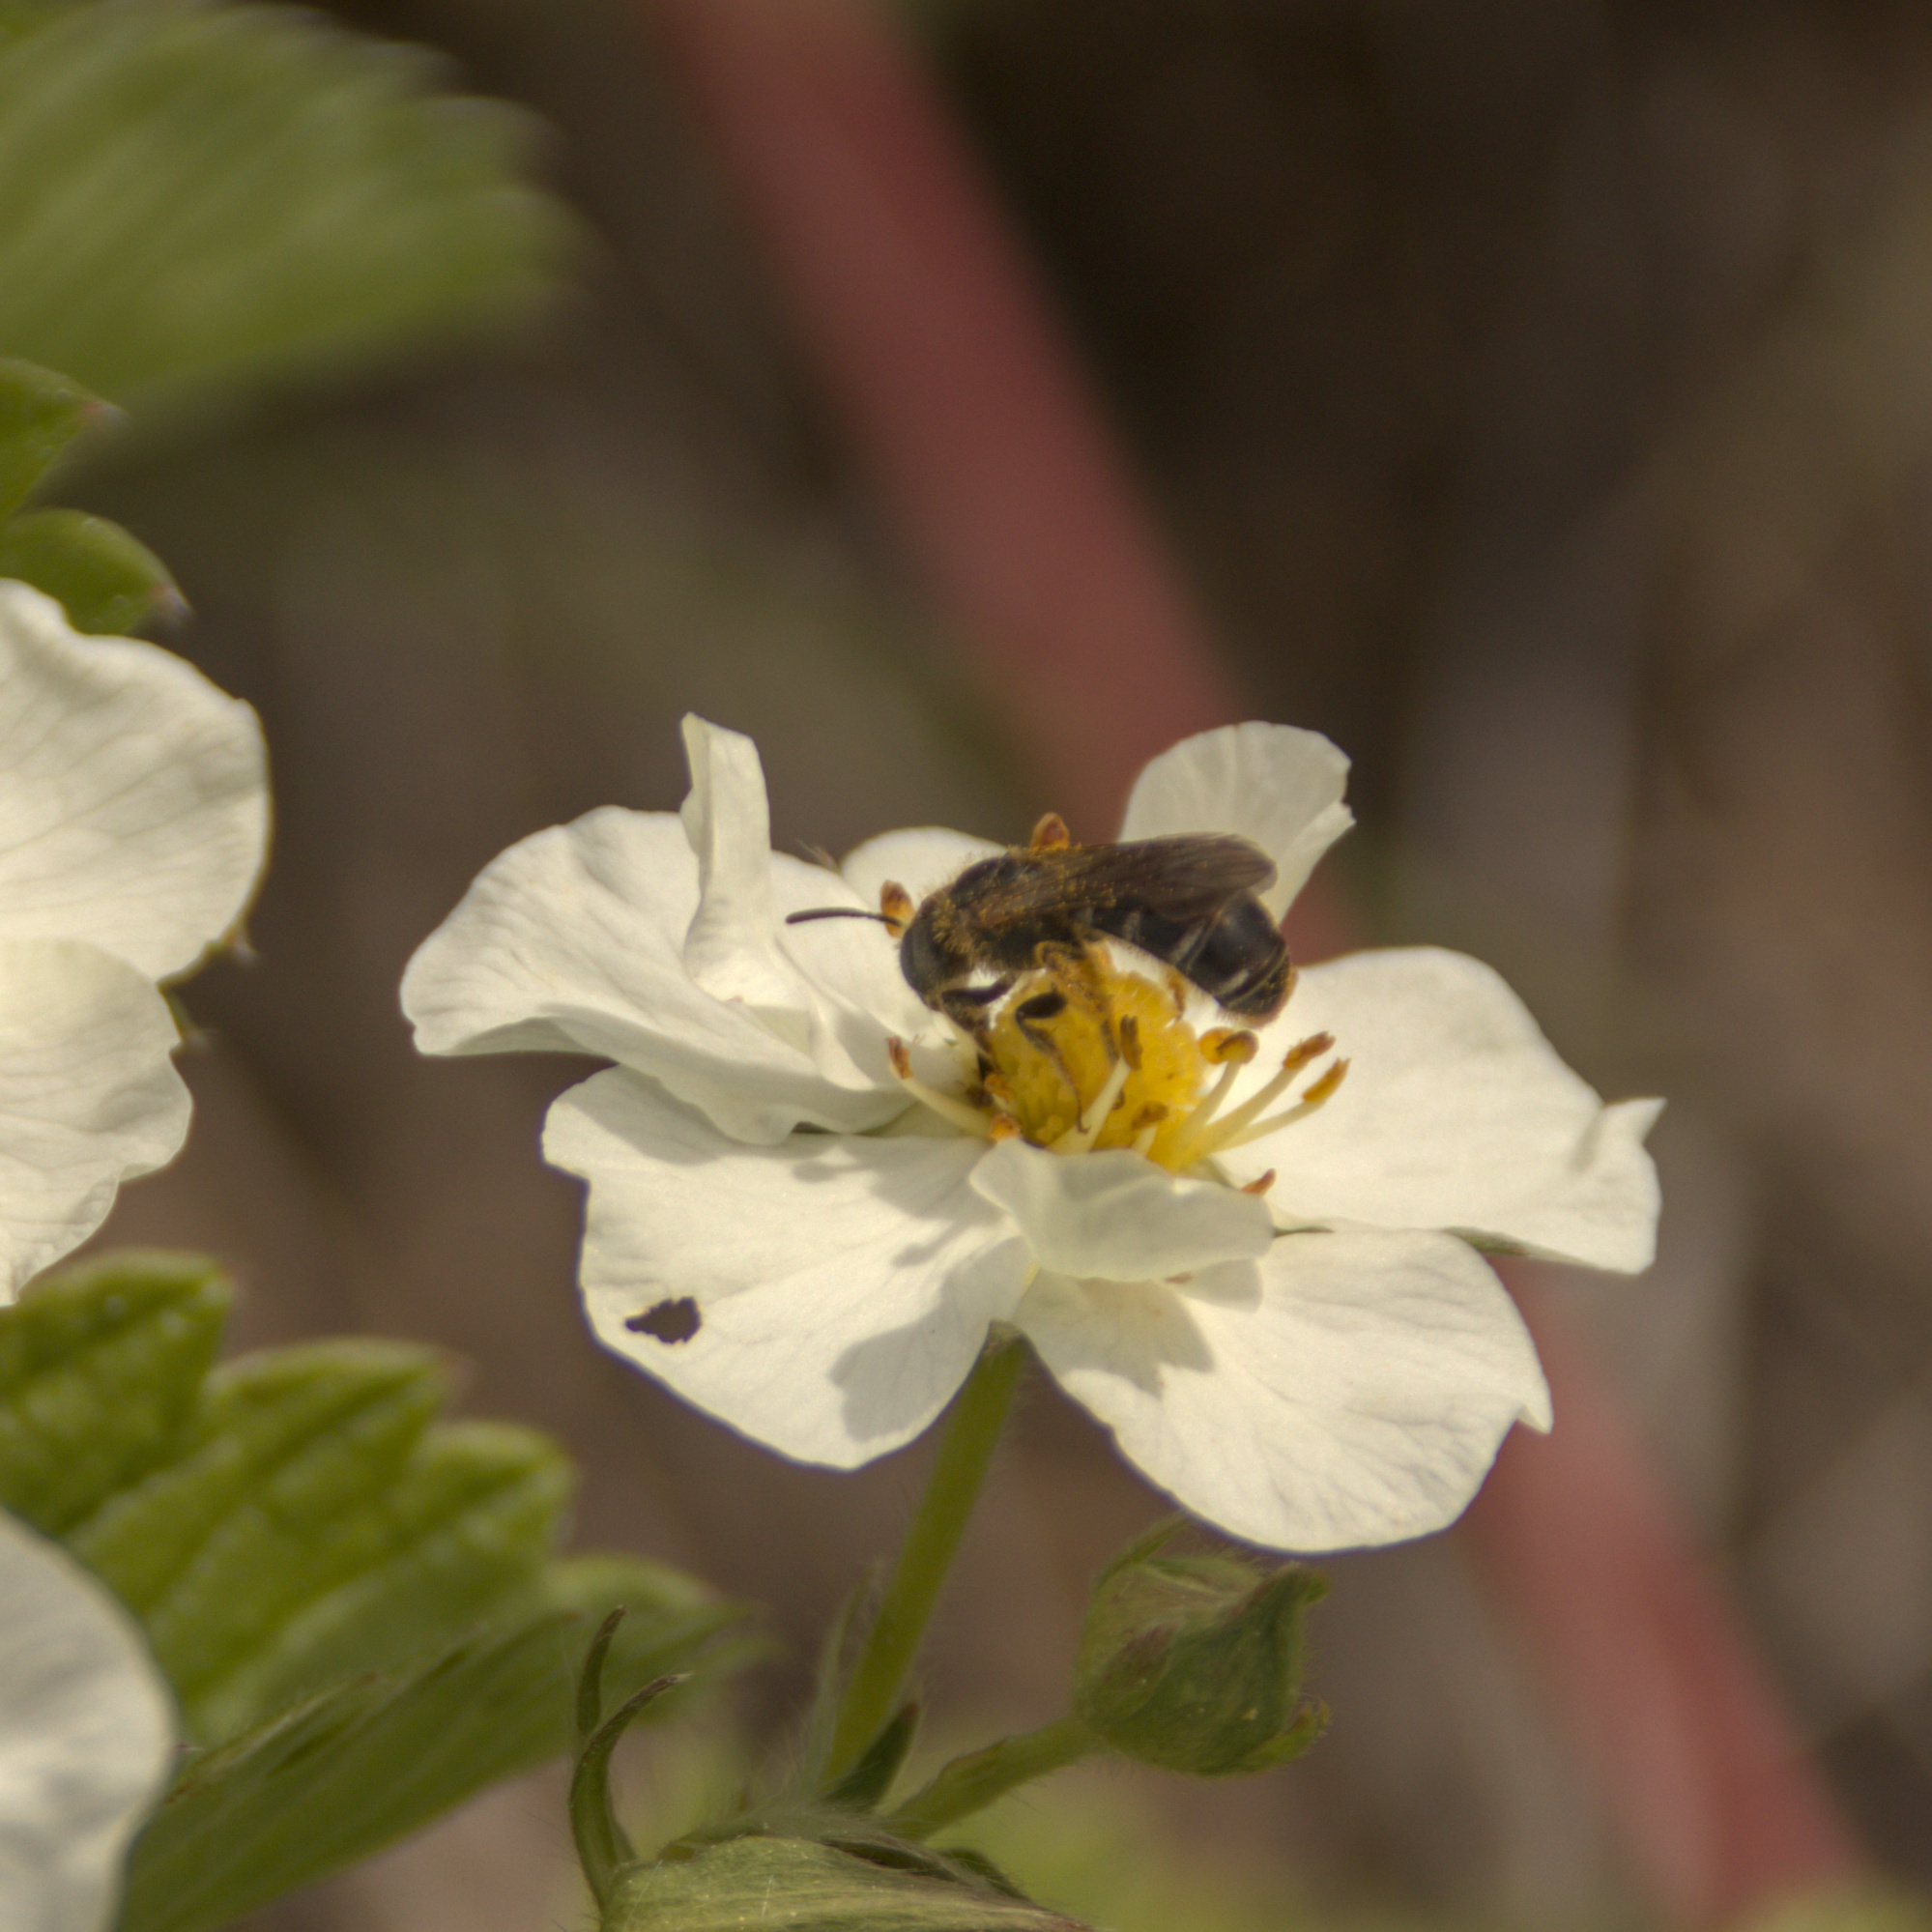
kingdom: Animalia
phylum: Arthropoda
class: Insecta
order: Hymenoptera
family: Halictidae
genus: Halictus
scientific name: Halictus
